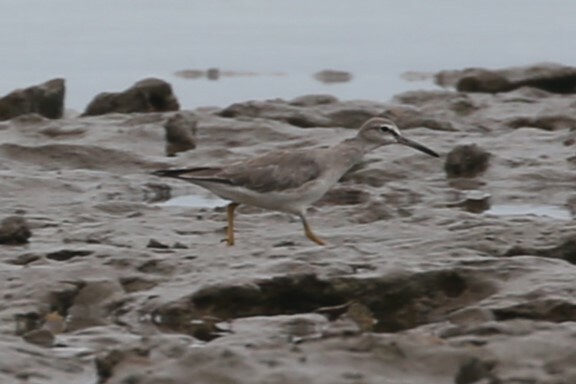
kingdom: Animalia
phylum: Chordata
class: Aves
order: Charadriiformes
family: Scolopacidae
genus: Tringa
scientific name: Tringa brevipes
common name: Grey-tailed tattler
